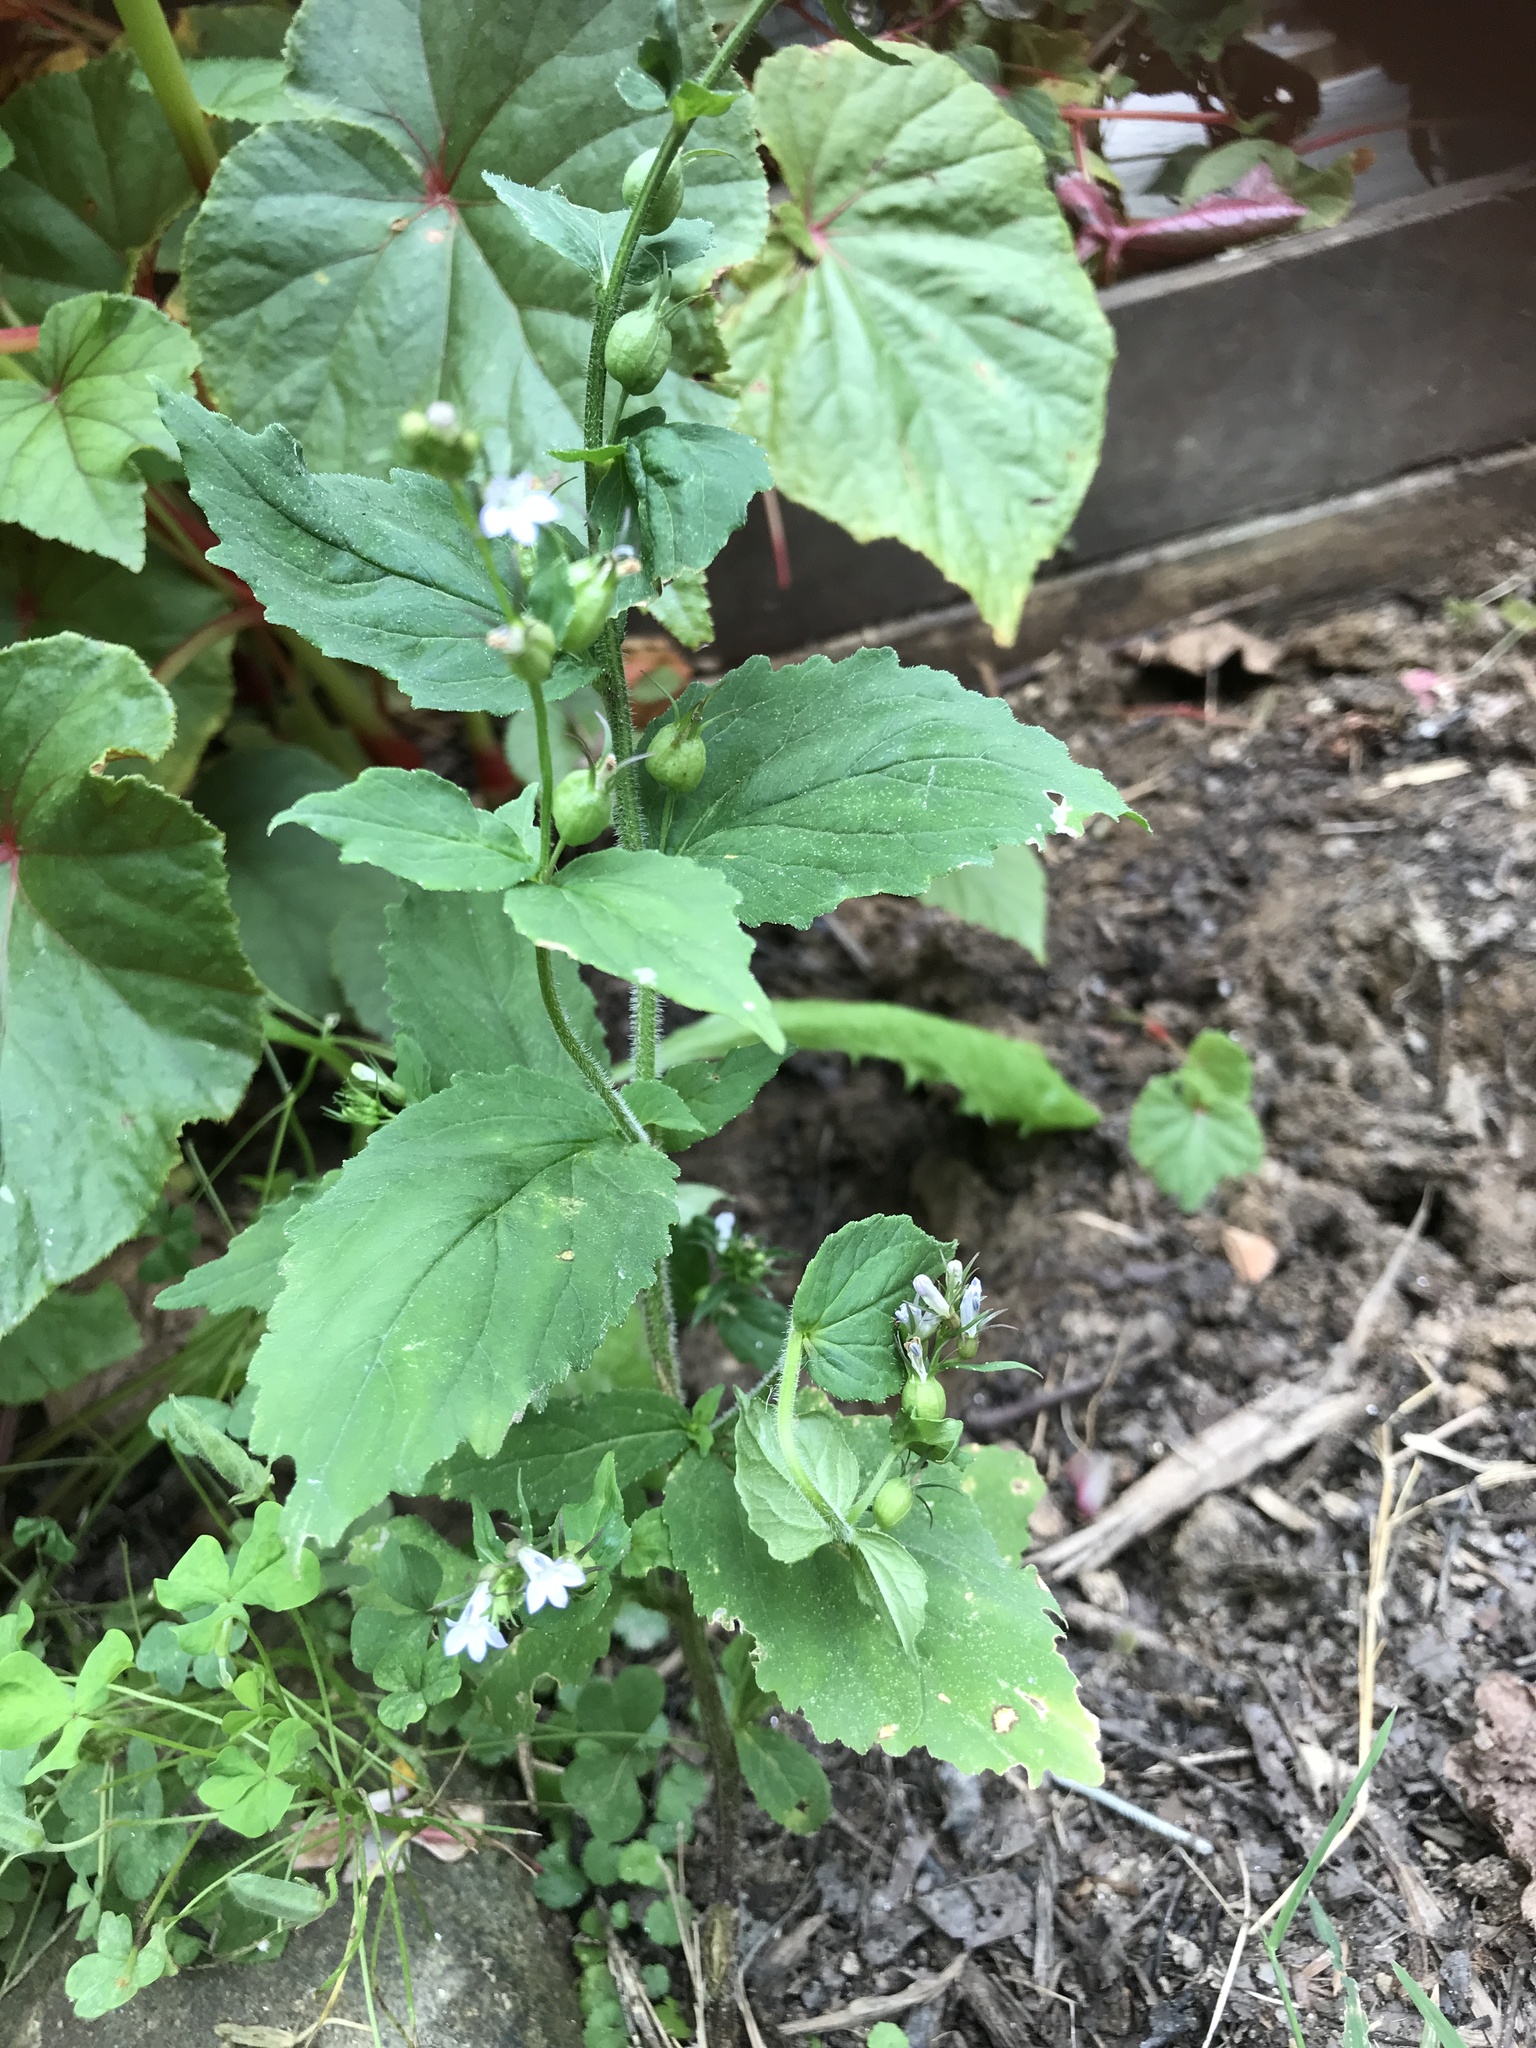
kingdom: Plantae
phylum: Tracheophyta
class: Magnoliopsida
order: Asterales
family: Campanulaceae
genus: Lobelia
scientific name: Lobelia inflata
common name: Indian tobacco
